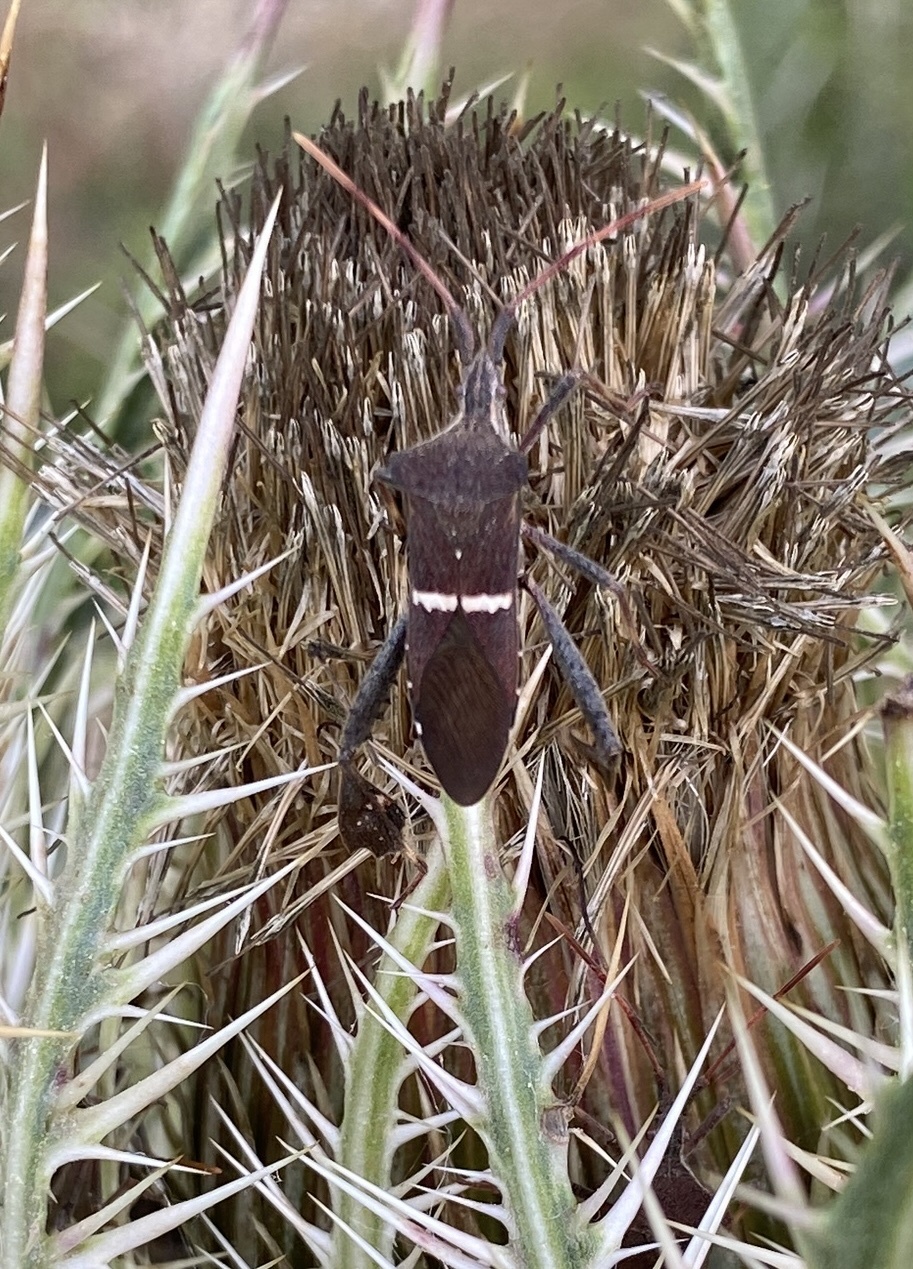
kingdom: Animalia
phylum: Arthropoda
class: Insecta
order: Hemiptera
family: Coreidae
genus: Leptoglossus
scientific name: Leptoglossus phyllopus
